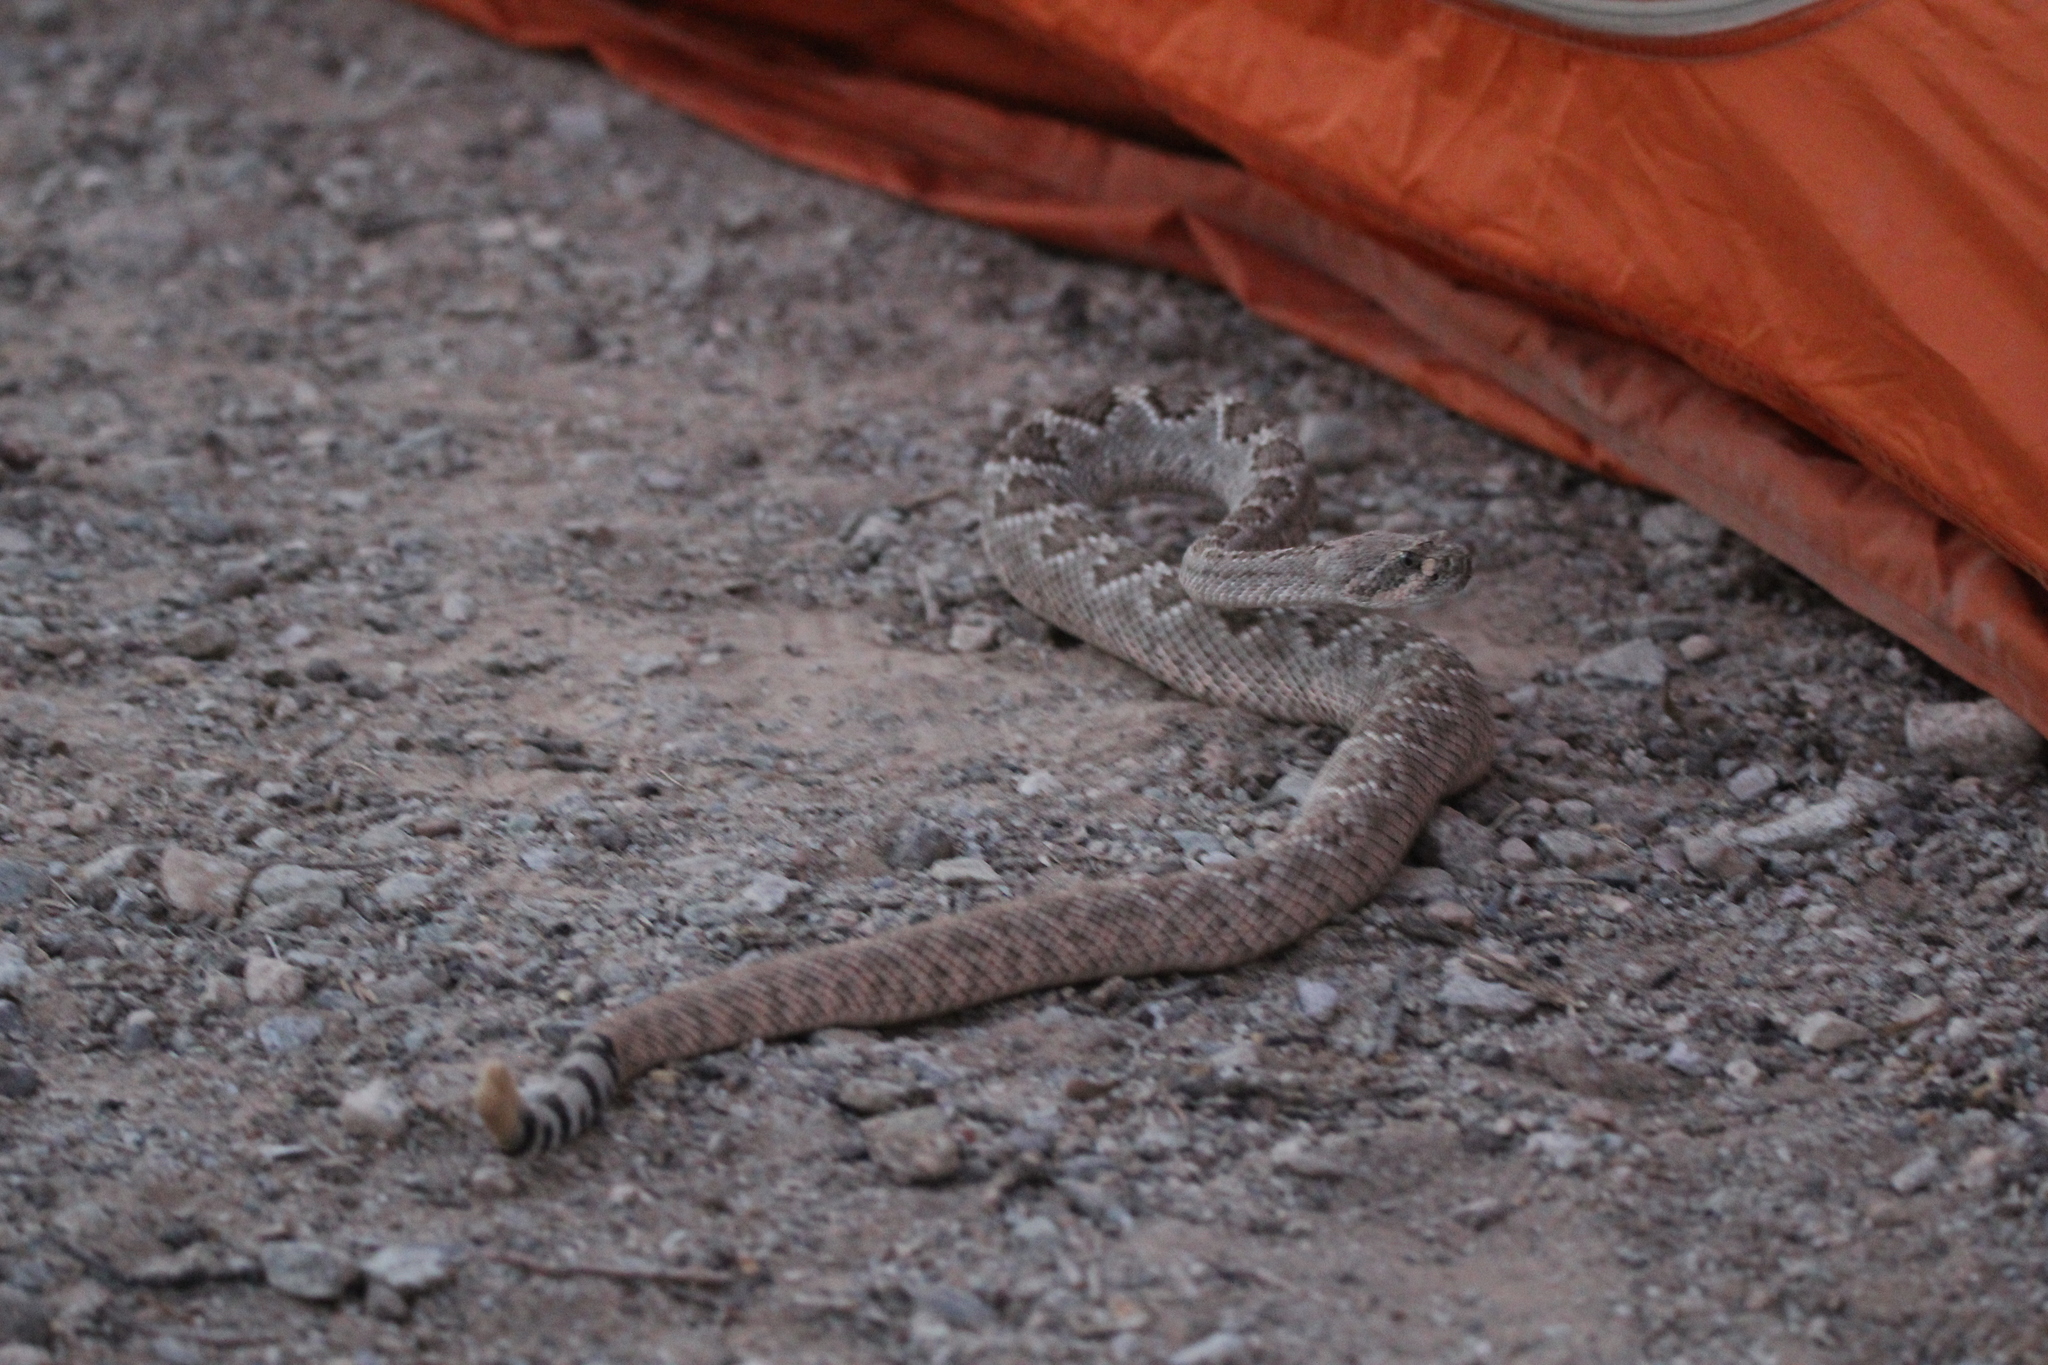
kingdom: Animalia
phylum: Chordata
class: Squamata
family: Viperidae
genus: Crotalus
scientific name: Crotalus atrox
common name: Western diamond-backed rattlesnake
